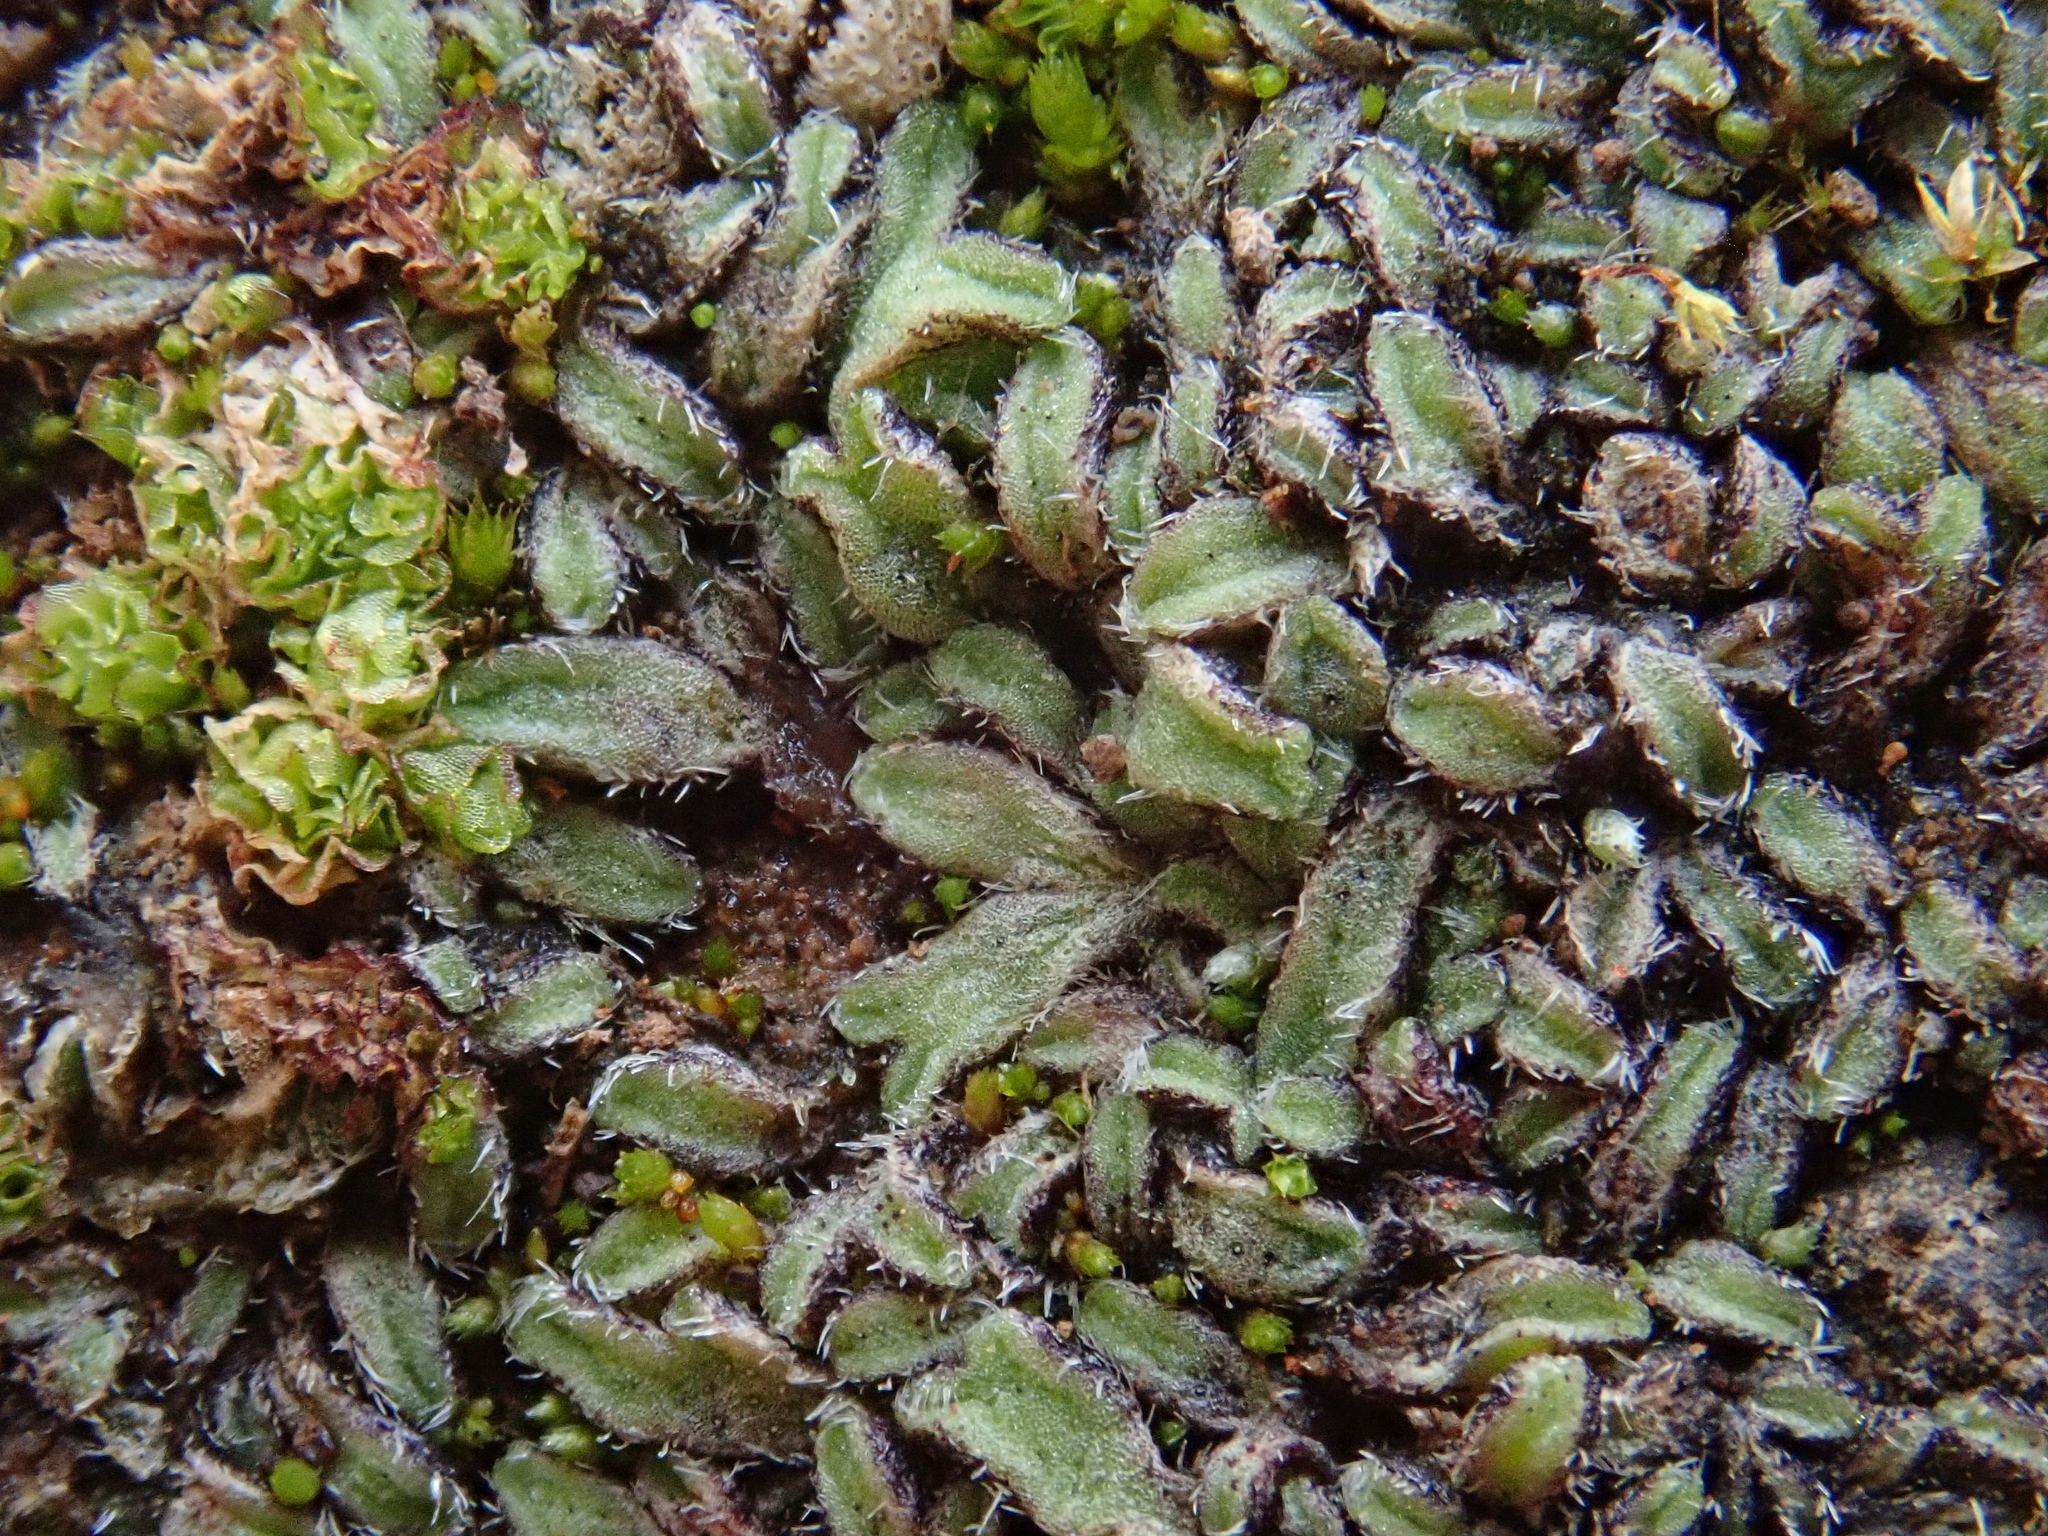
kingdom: Plantae
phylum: Marchantiophyta
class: Marchantiopsida
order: Marchantiales
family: Ricciaceae
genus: Riccia
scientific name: Riccia crozalsii
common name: Ciliate crystalwort
